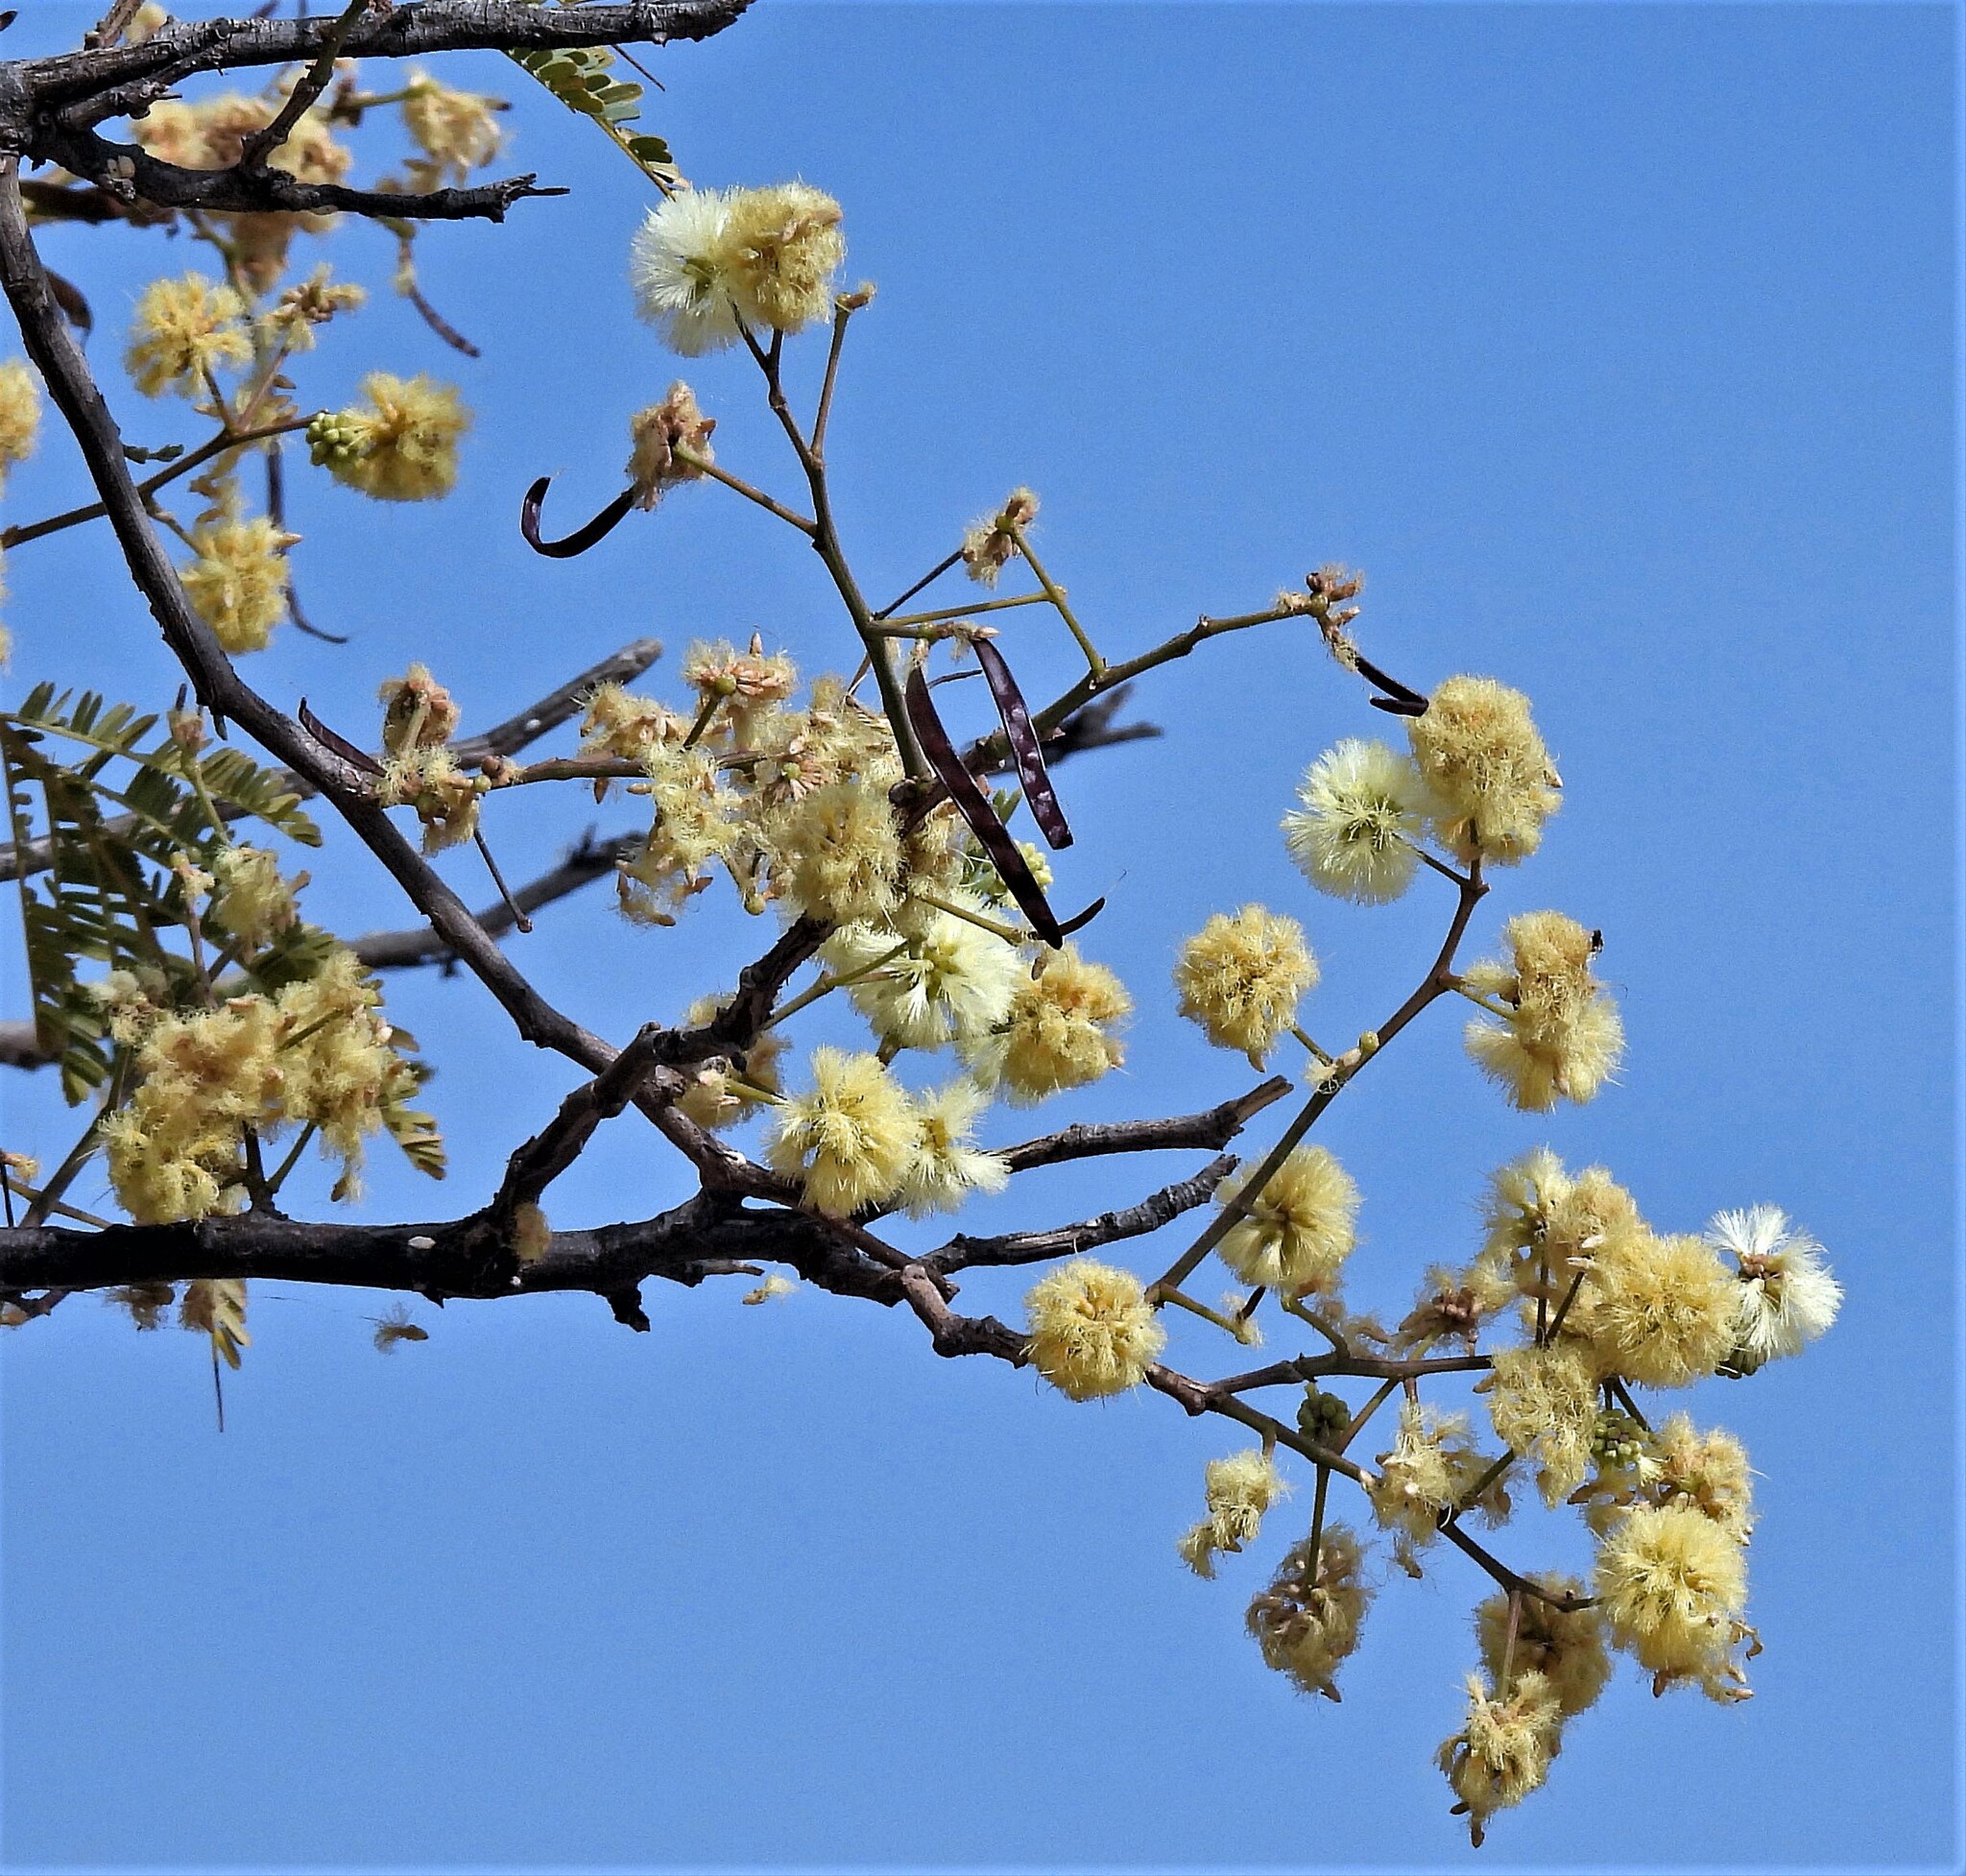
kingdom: Plantae
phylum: Tracheophyta
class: Magnoliopsida
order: Fabales
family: Fabaceae
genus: Senegalia
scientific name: Senegalia praecox
